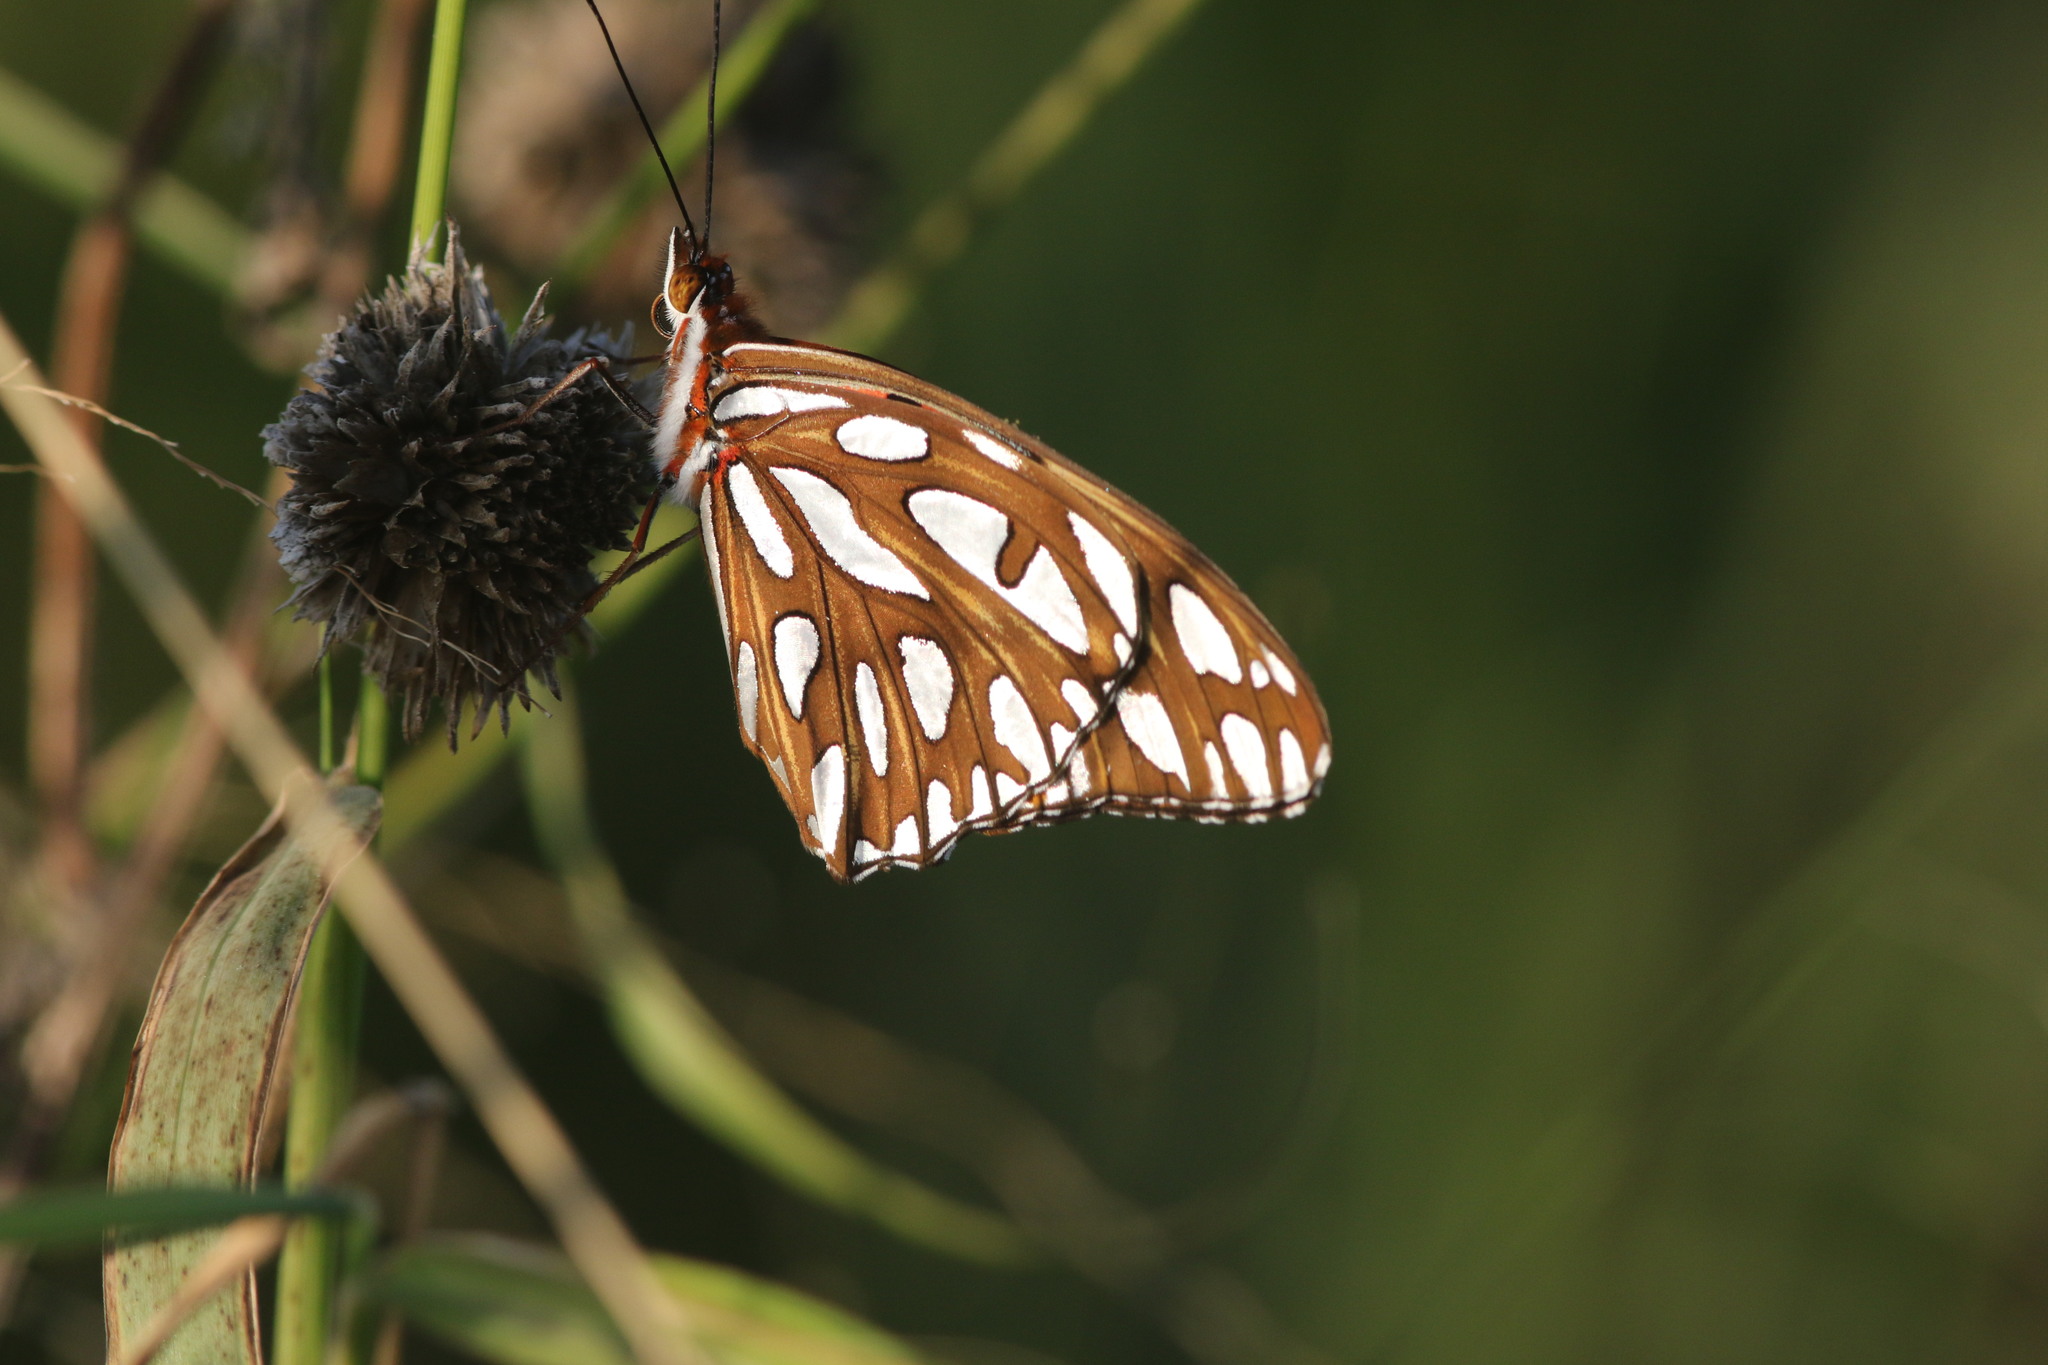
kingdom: Animalia
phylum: Arthropoda
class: Insecta
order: Lepidoptera
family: Nymphalidae
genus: Dione
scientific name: Dione vanillae
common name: Gulf fritillary
